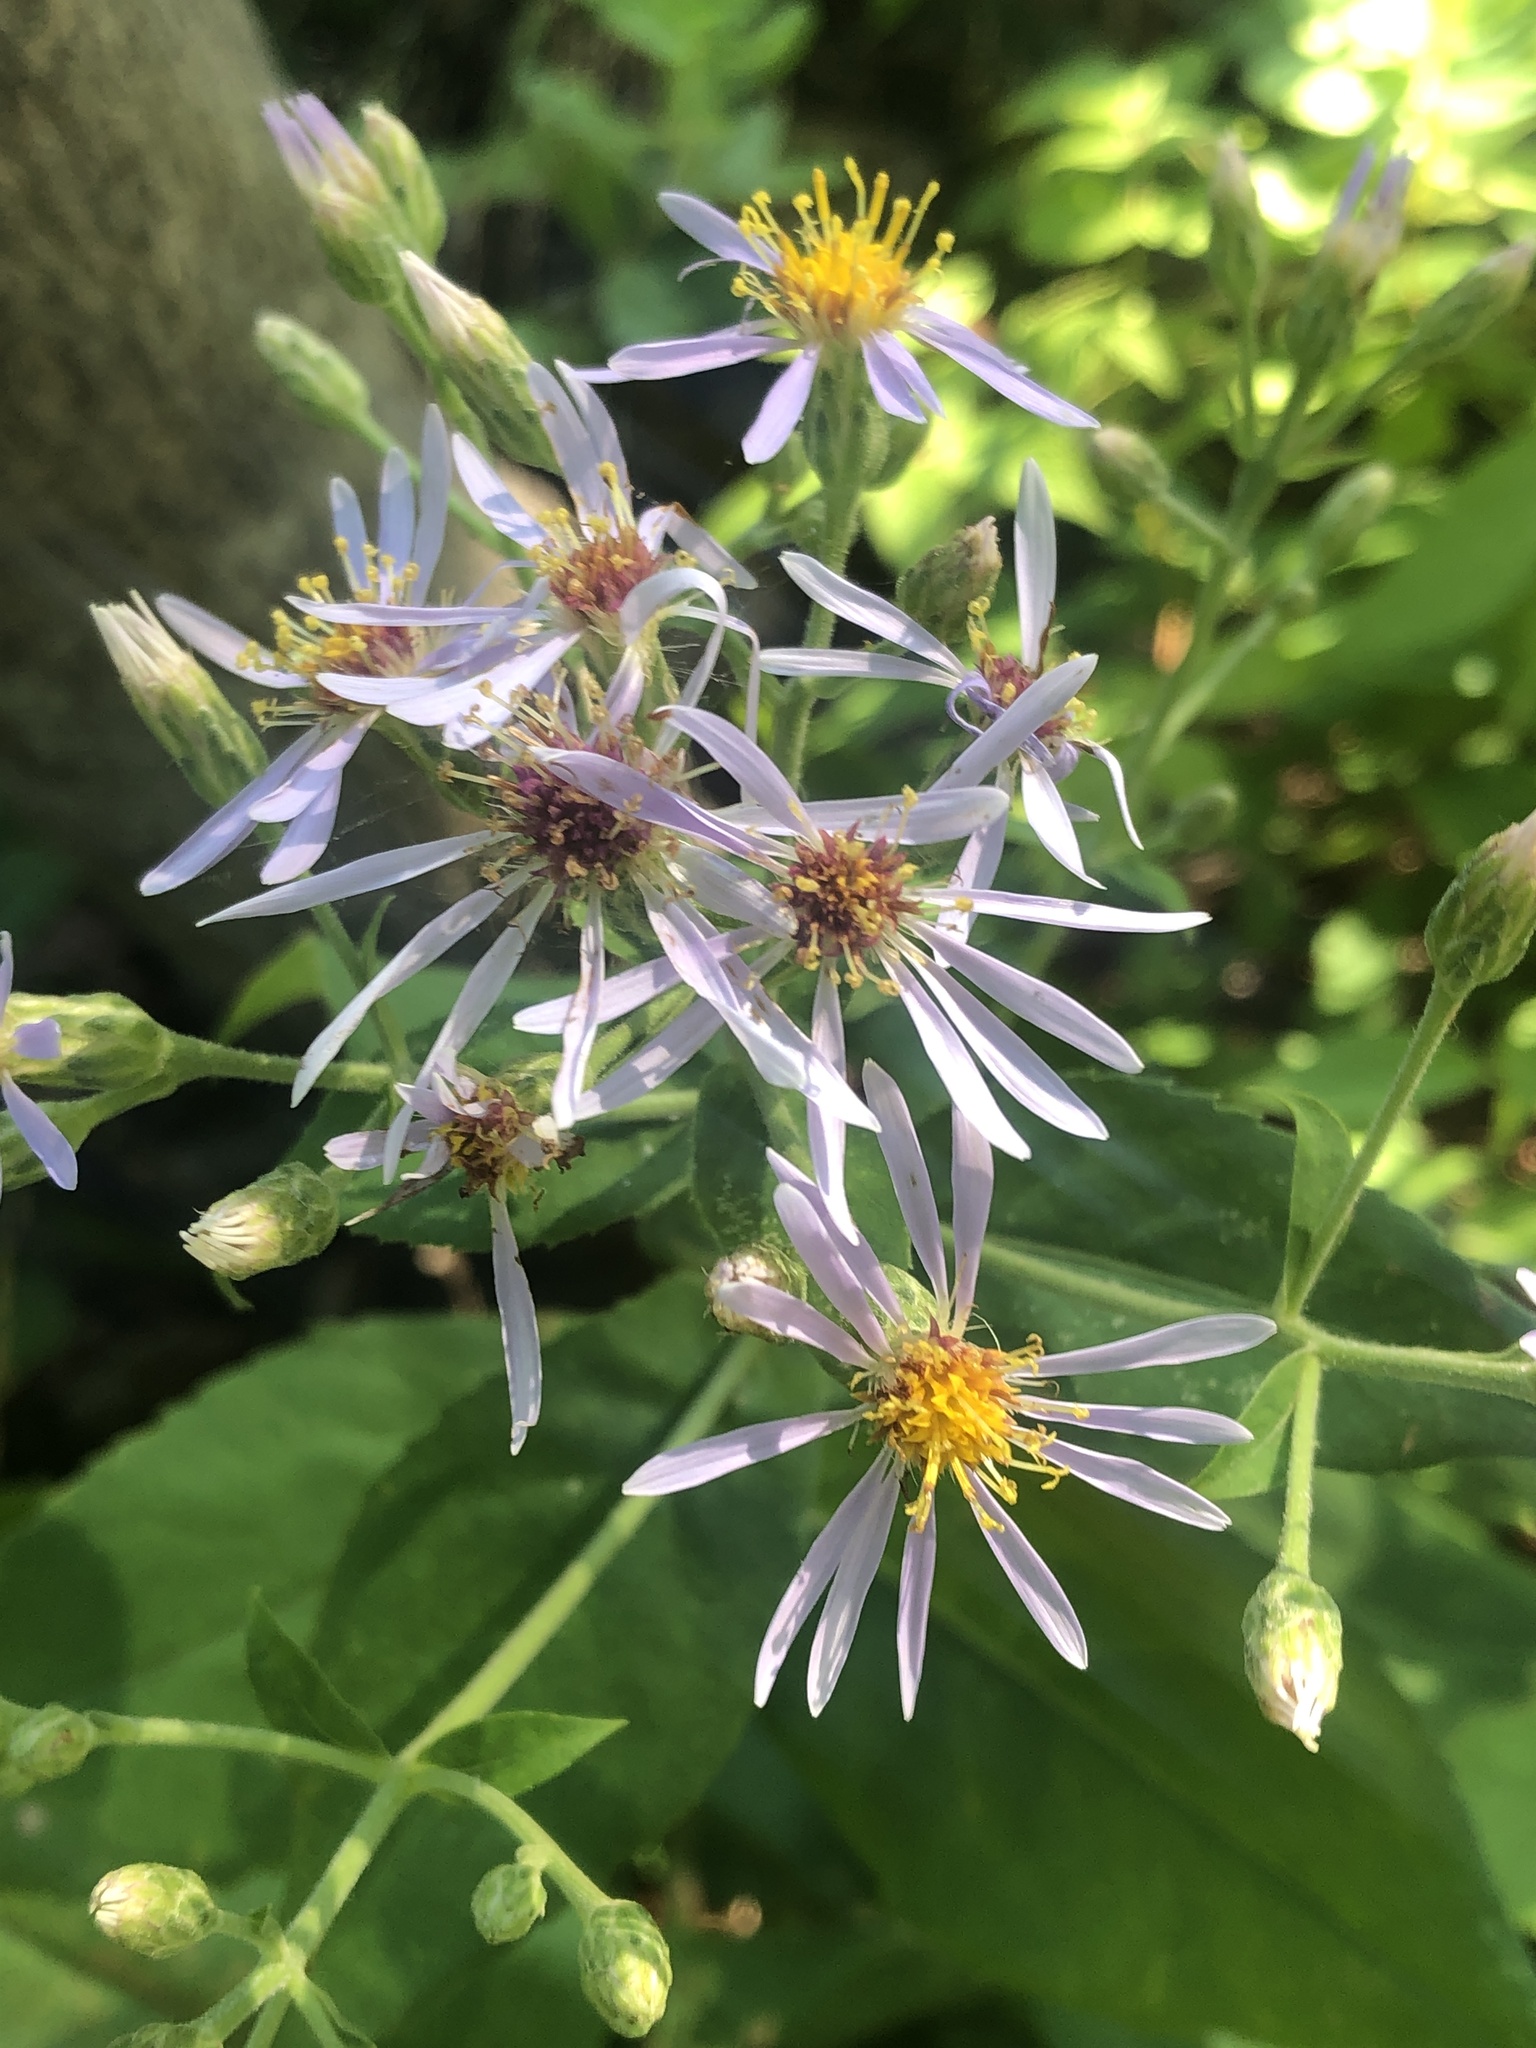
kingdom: Plantae
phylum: Tracheophyta
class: Magnoliopsida
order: Asterales
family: Asteraceae
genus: Eurybia
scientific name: Eurybia macrophylla
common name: Big-leaved aster
